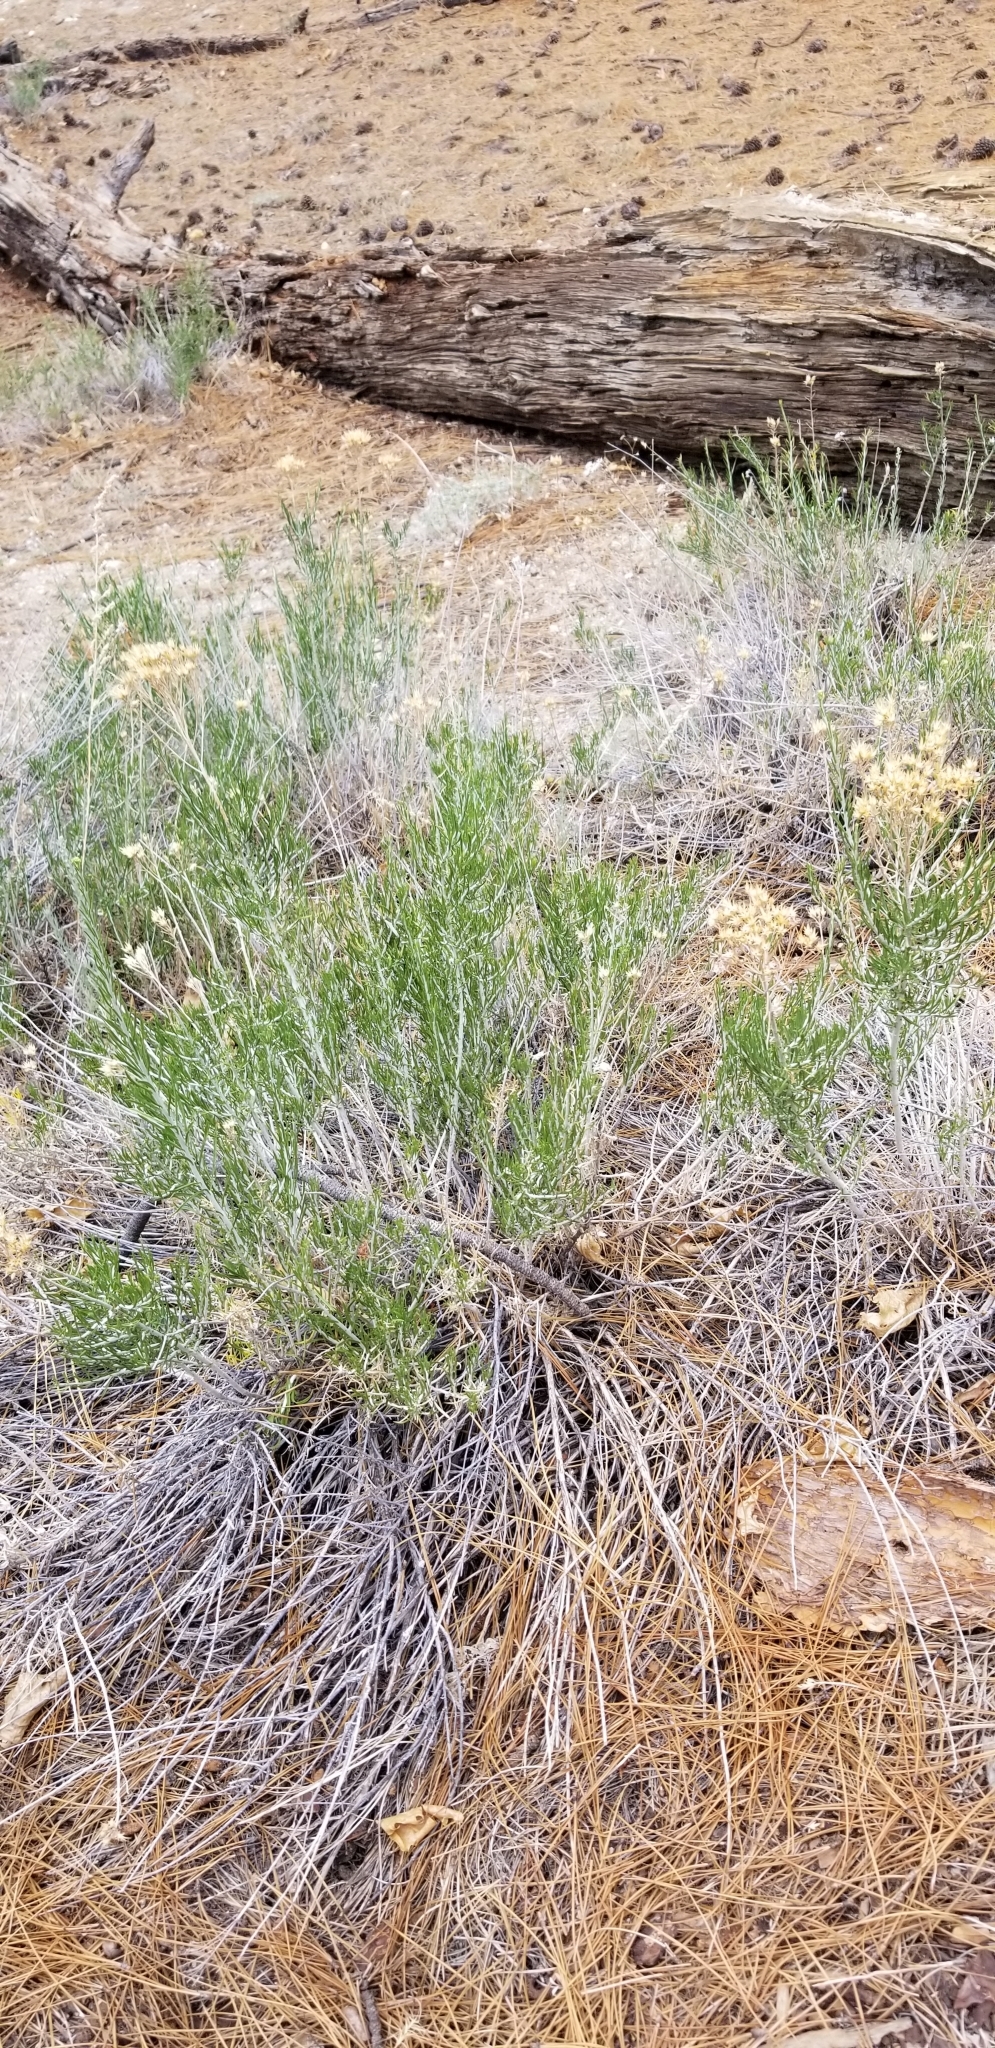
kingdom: Plantae
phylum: Tracheophyta
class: Magnoliopsida
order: Asterales
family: Asteraceae
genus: Ericameria
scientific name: Ericameria nauseosa
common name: Rubber rabbitbrush
